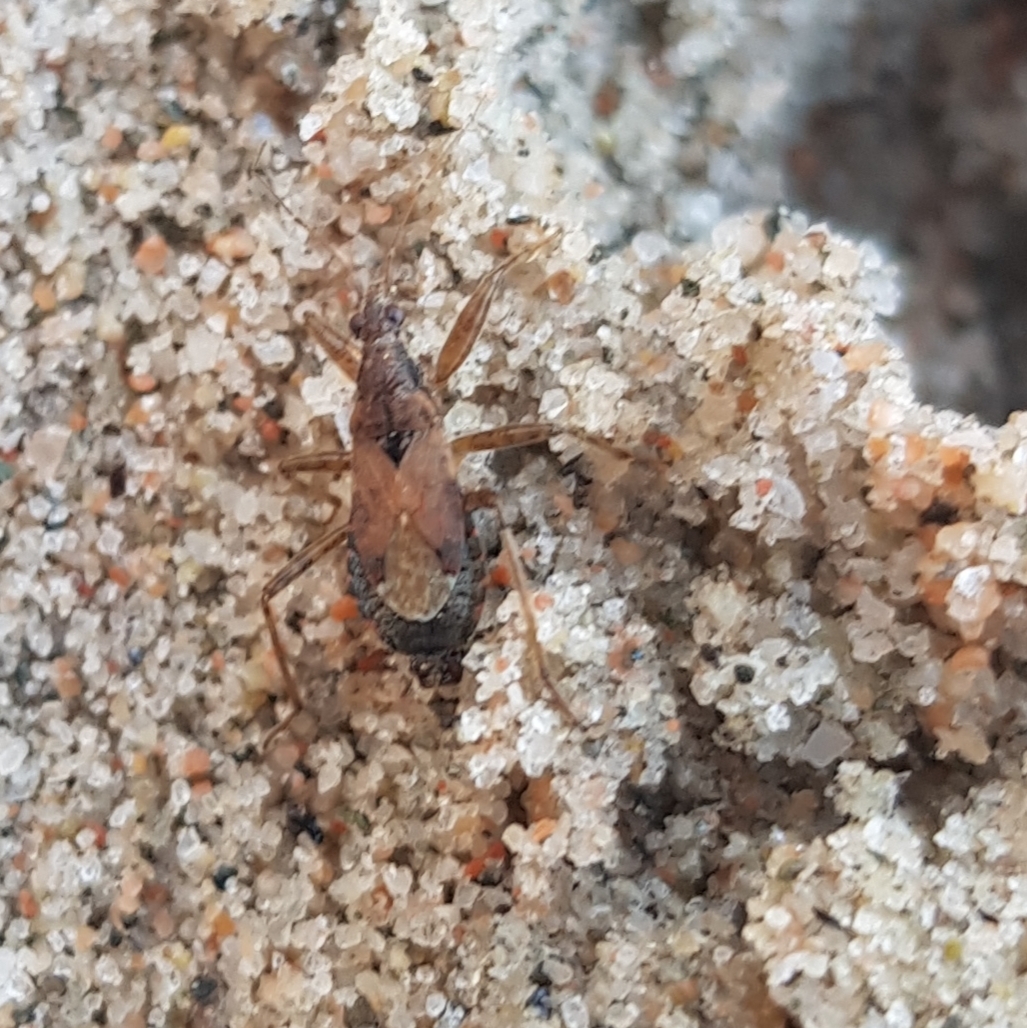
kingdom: Animalia
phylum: Arthropoda
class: Insecta
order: Hemiptera
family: Nabidae
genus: Himacerus
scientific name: Himacerus mirmicoides
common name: Ant damsel bug
